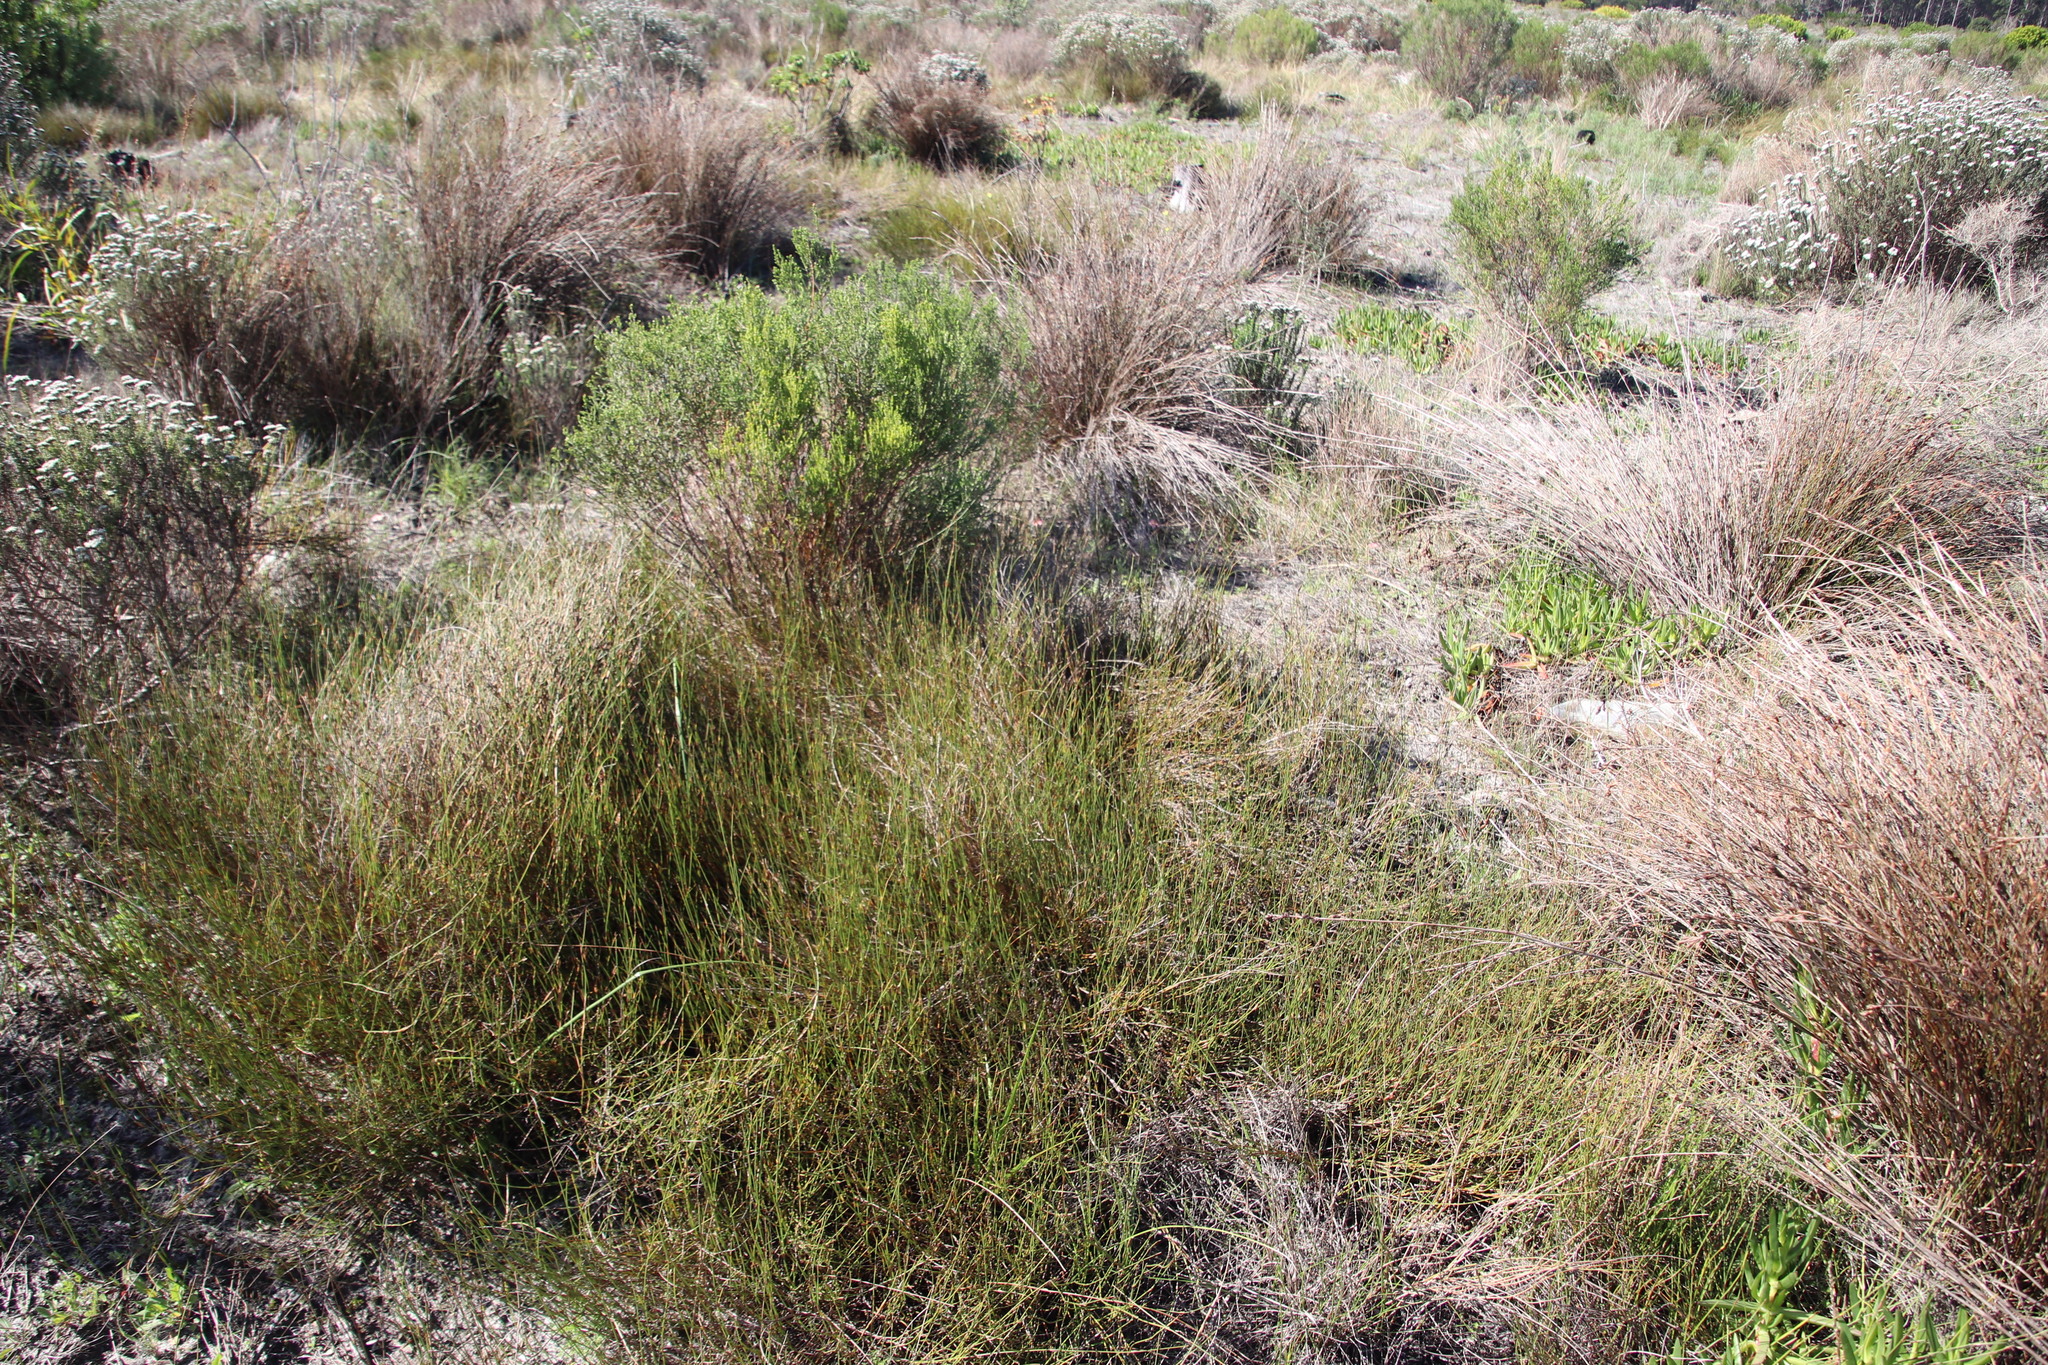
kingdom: Plantae
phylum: Tracheophyta
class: Liliopsida
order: Poales
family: Restionaceae
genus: Willdenowia
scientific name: Willdenowia sulcata
